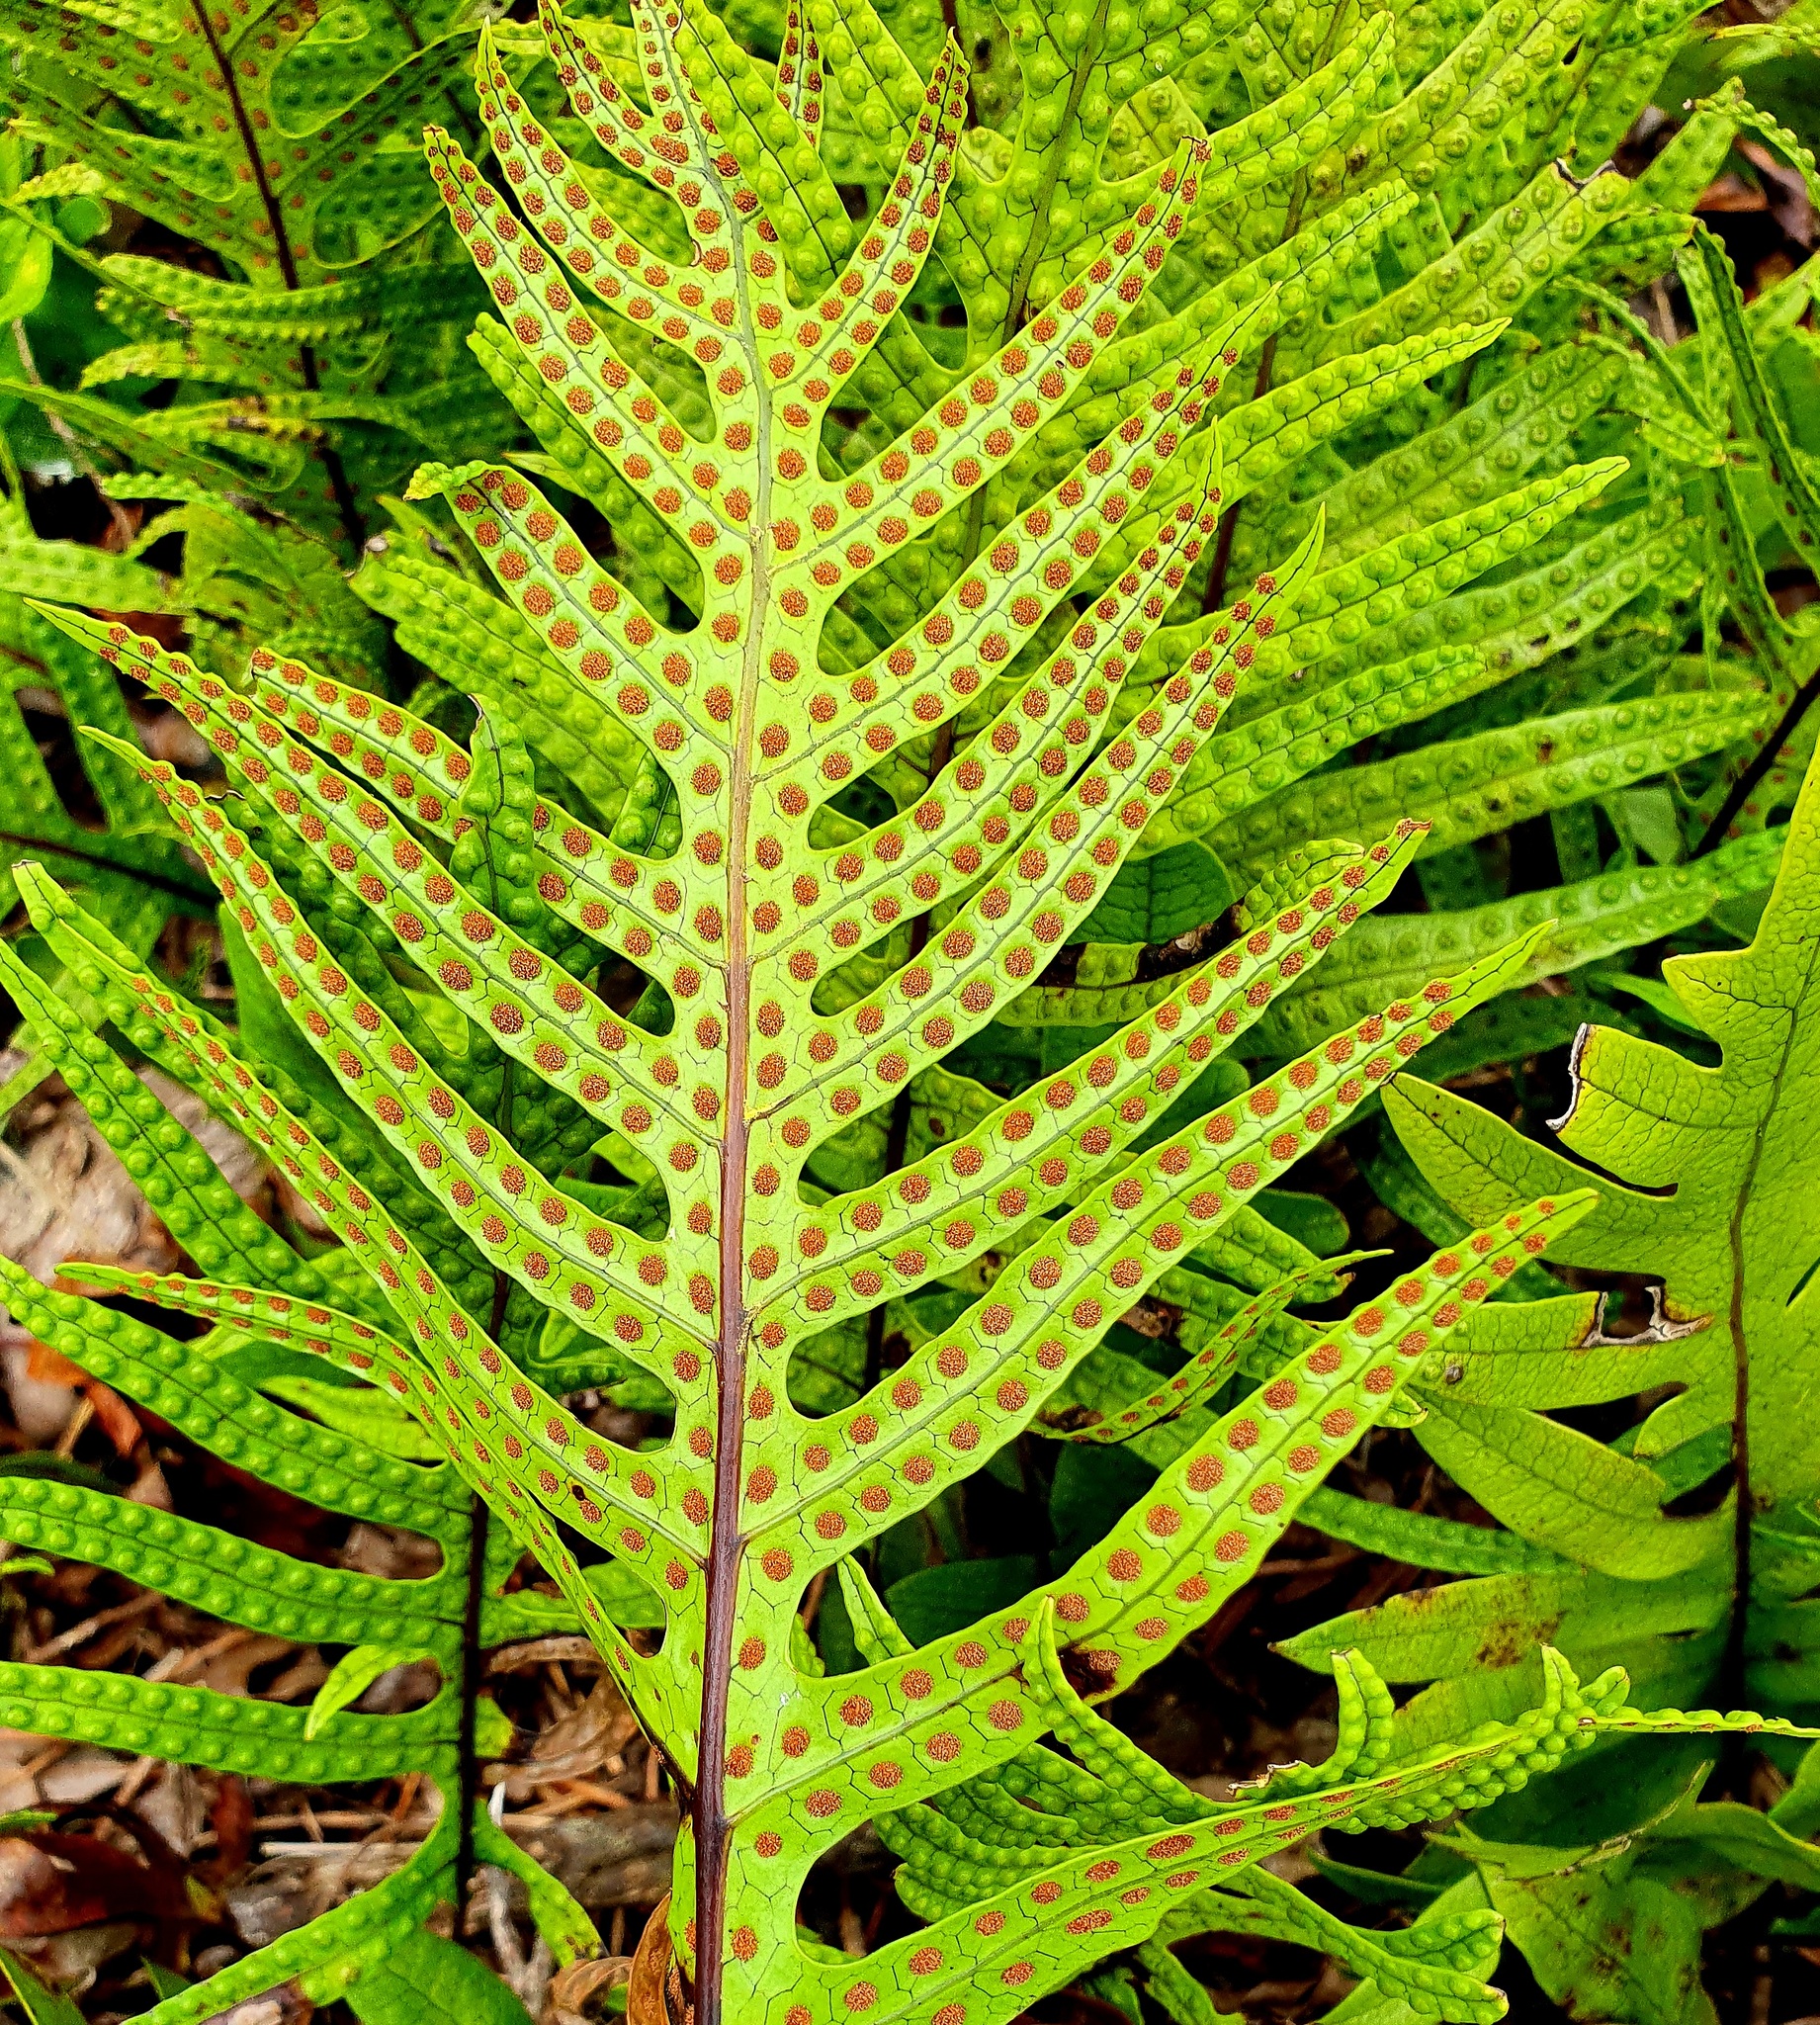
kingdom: Plantae
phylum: Tracheophyta
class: Polypodiopsida
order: Polypodiales
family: Polypodiaceae
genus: Lecanopteris
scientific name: Lecanopteris pustulata
